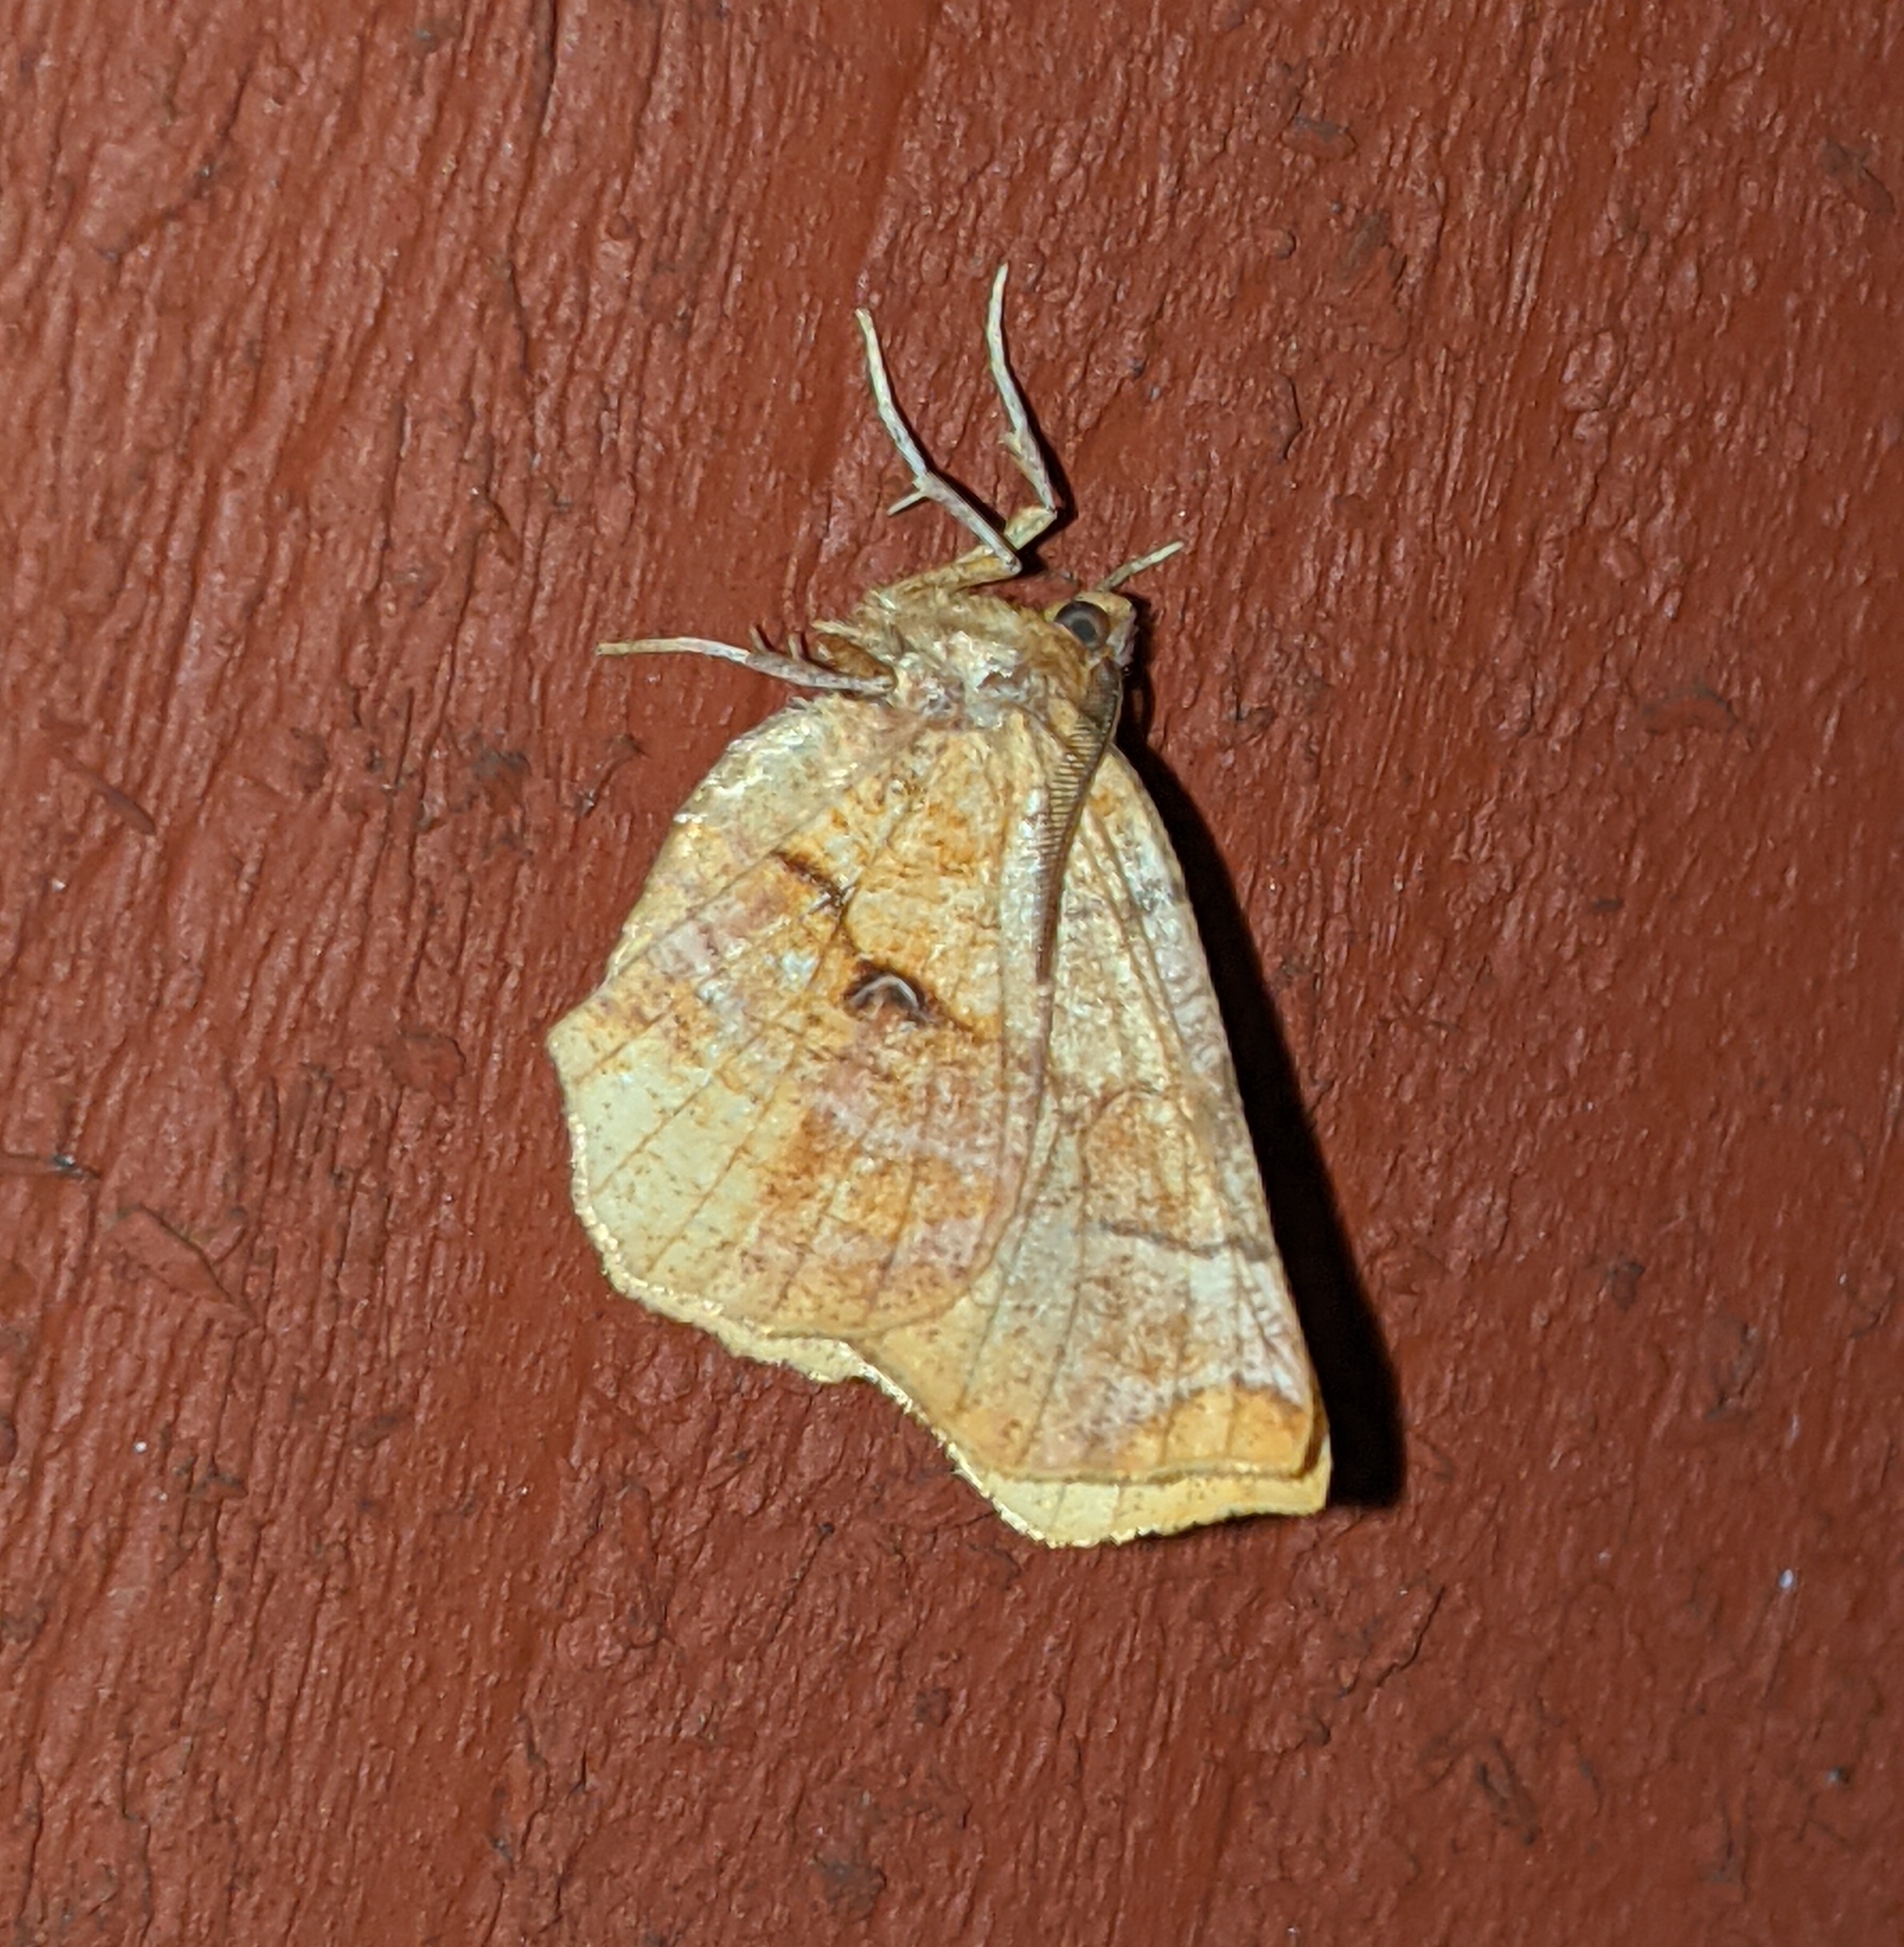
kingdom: Animalia
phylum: Arthropoda
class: Insecta
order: Lepidoptera
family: Geometridae
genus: Selenia
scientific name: Selenia alciphearia
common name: Brown-tipped thorn
